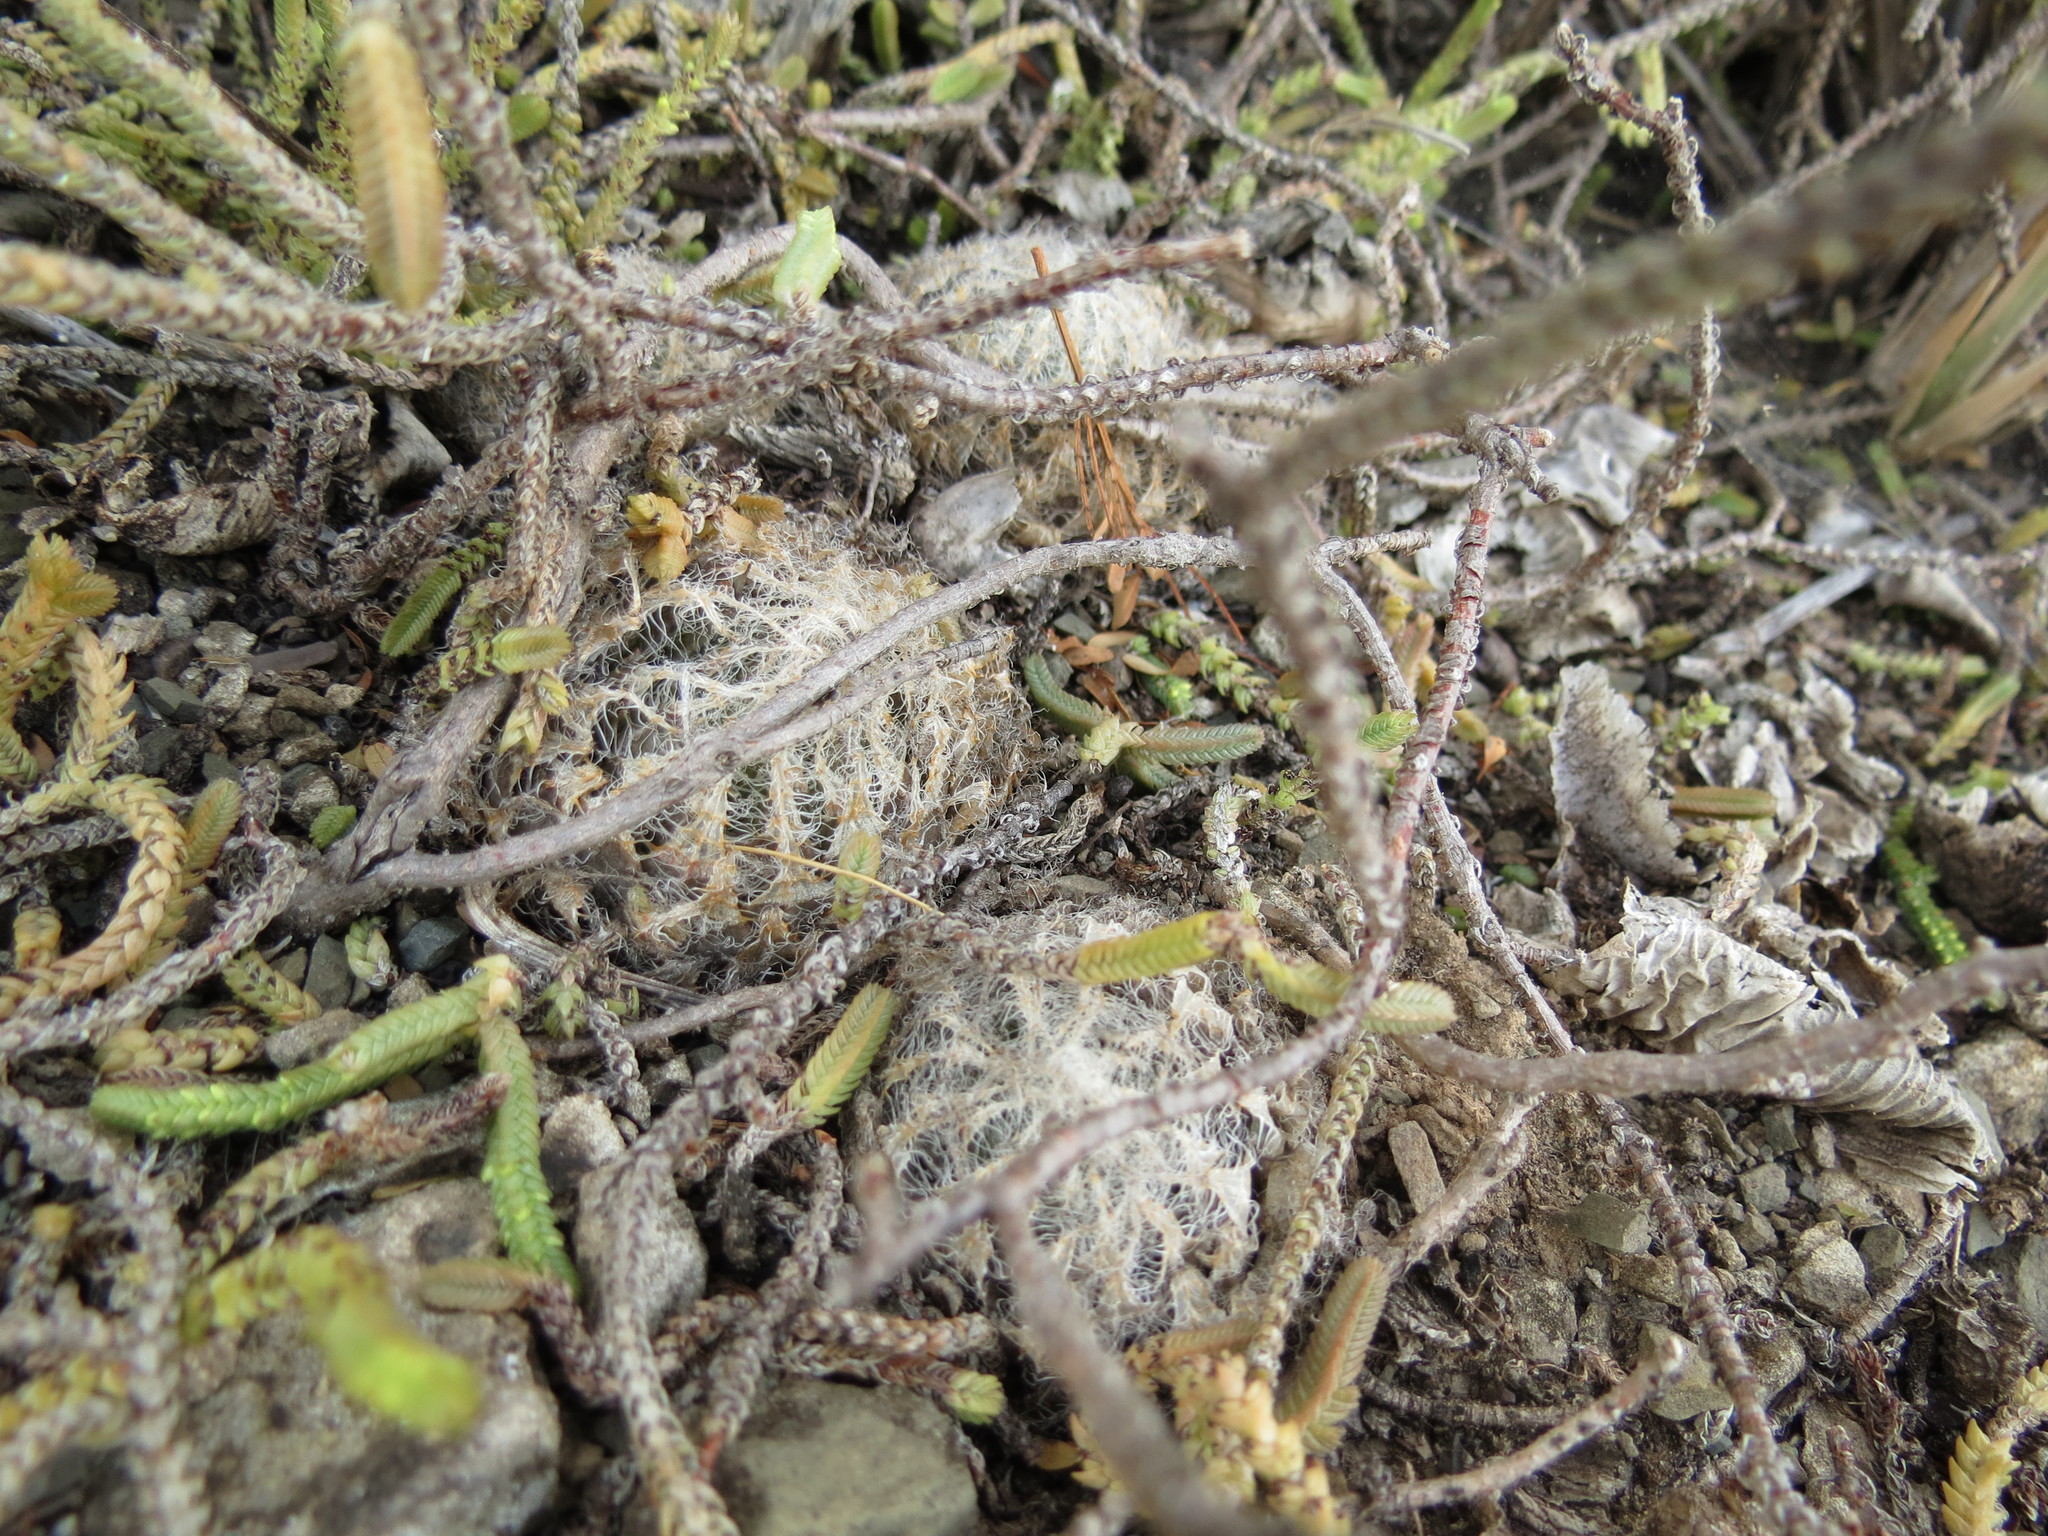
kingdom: Plantae
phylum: Tracheophyta
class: Liliopsida
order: Asparagales
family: Asphodelaceae
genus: Haworthia
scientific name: Haworthia bolusii
